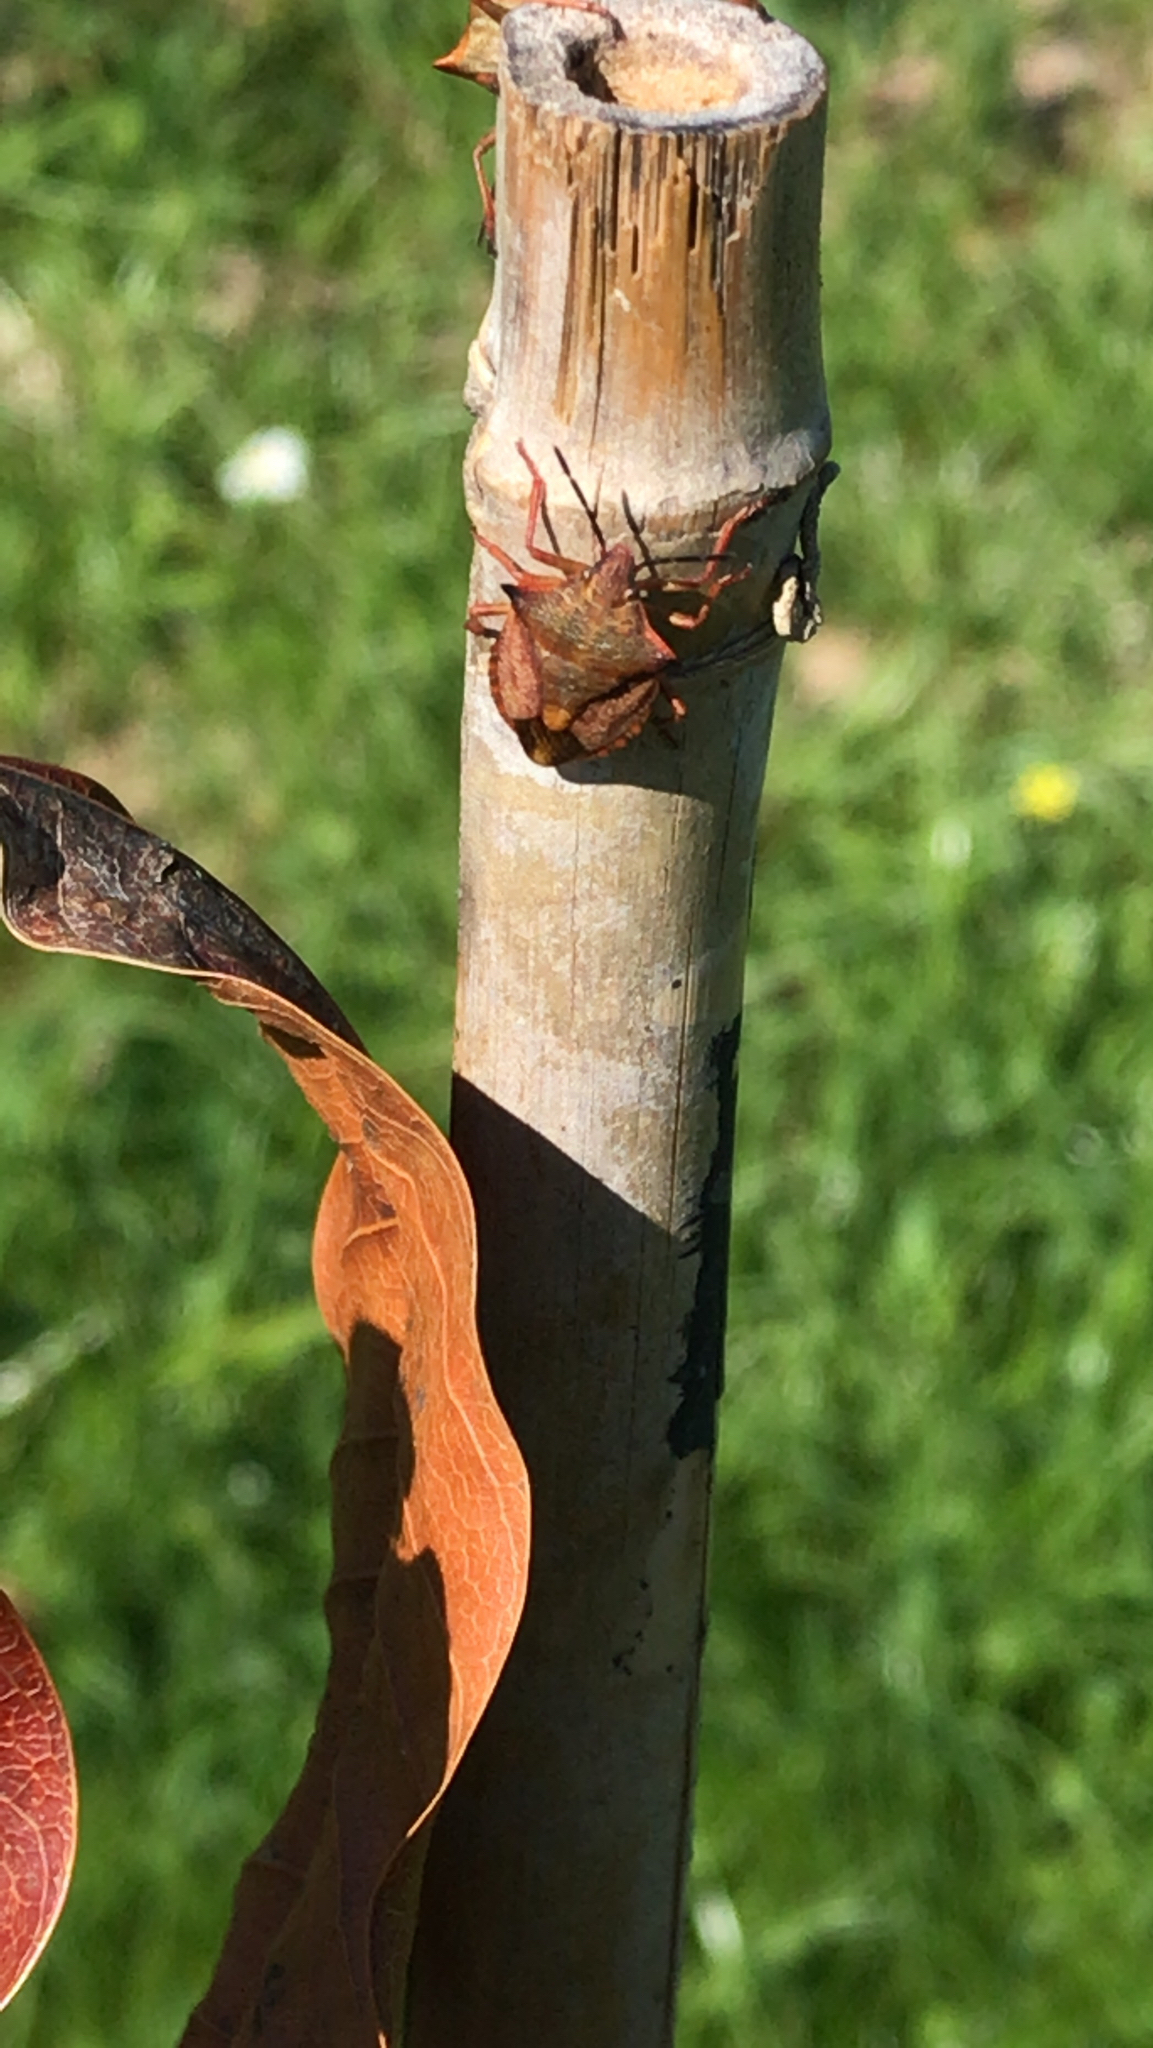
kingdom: Animalia
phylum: Arthropoda
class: Insecta
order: Hemiptera
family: Pentatomidae
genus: Carpocoris
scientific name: Carpocoris mediterraneus
